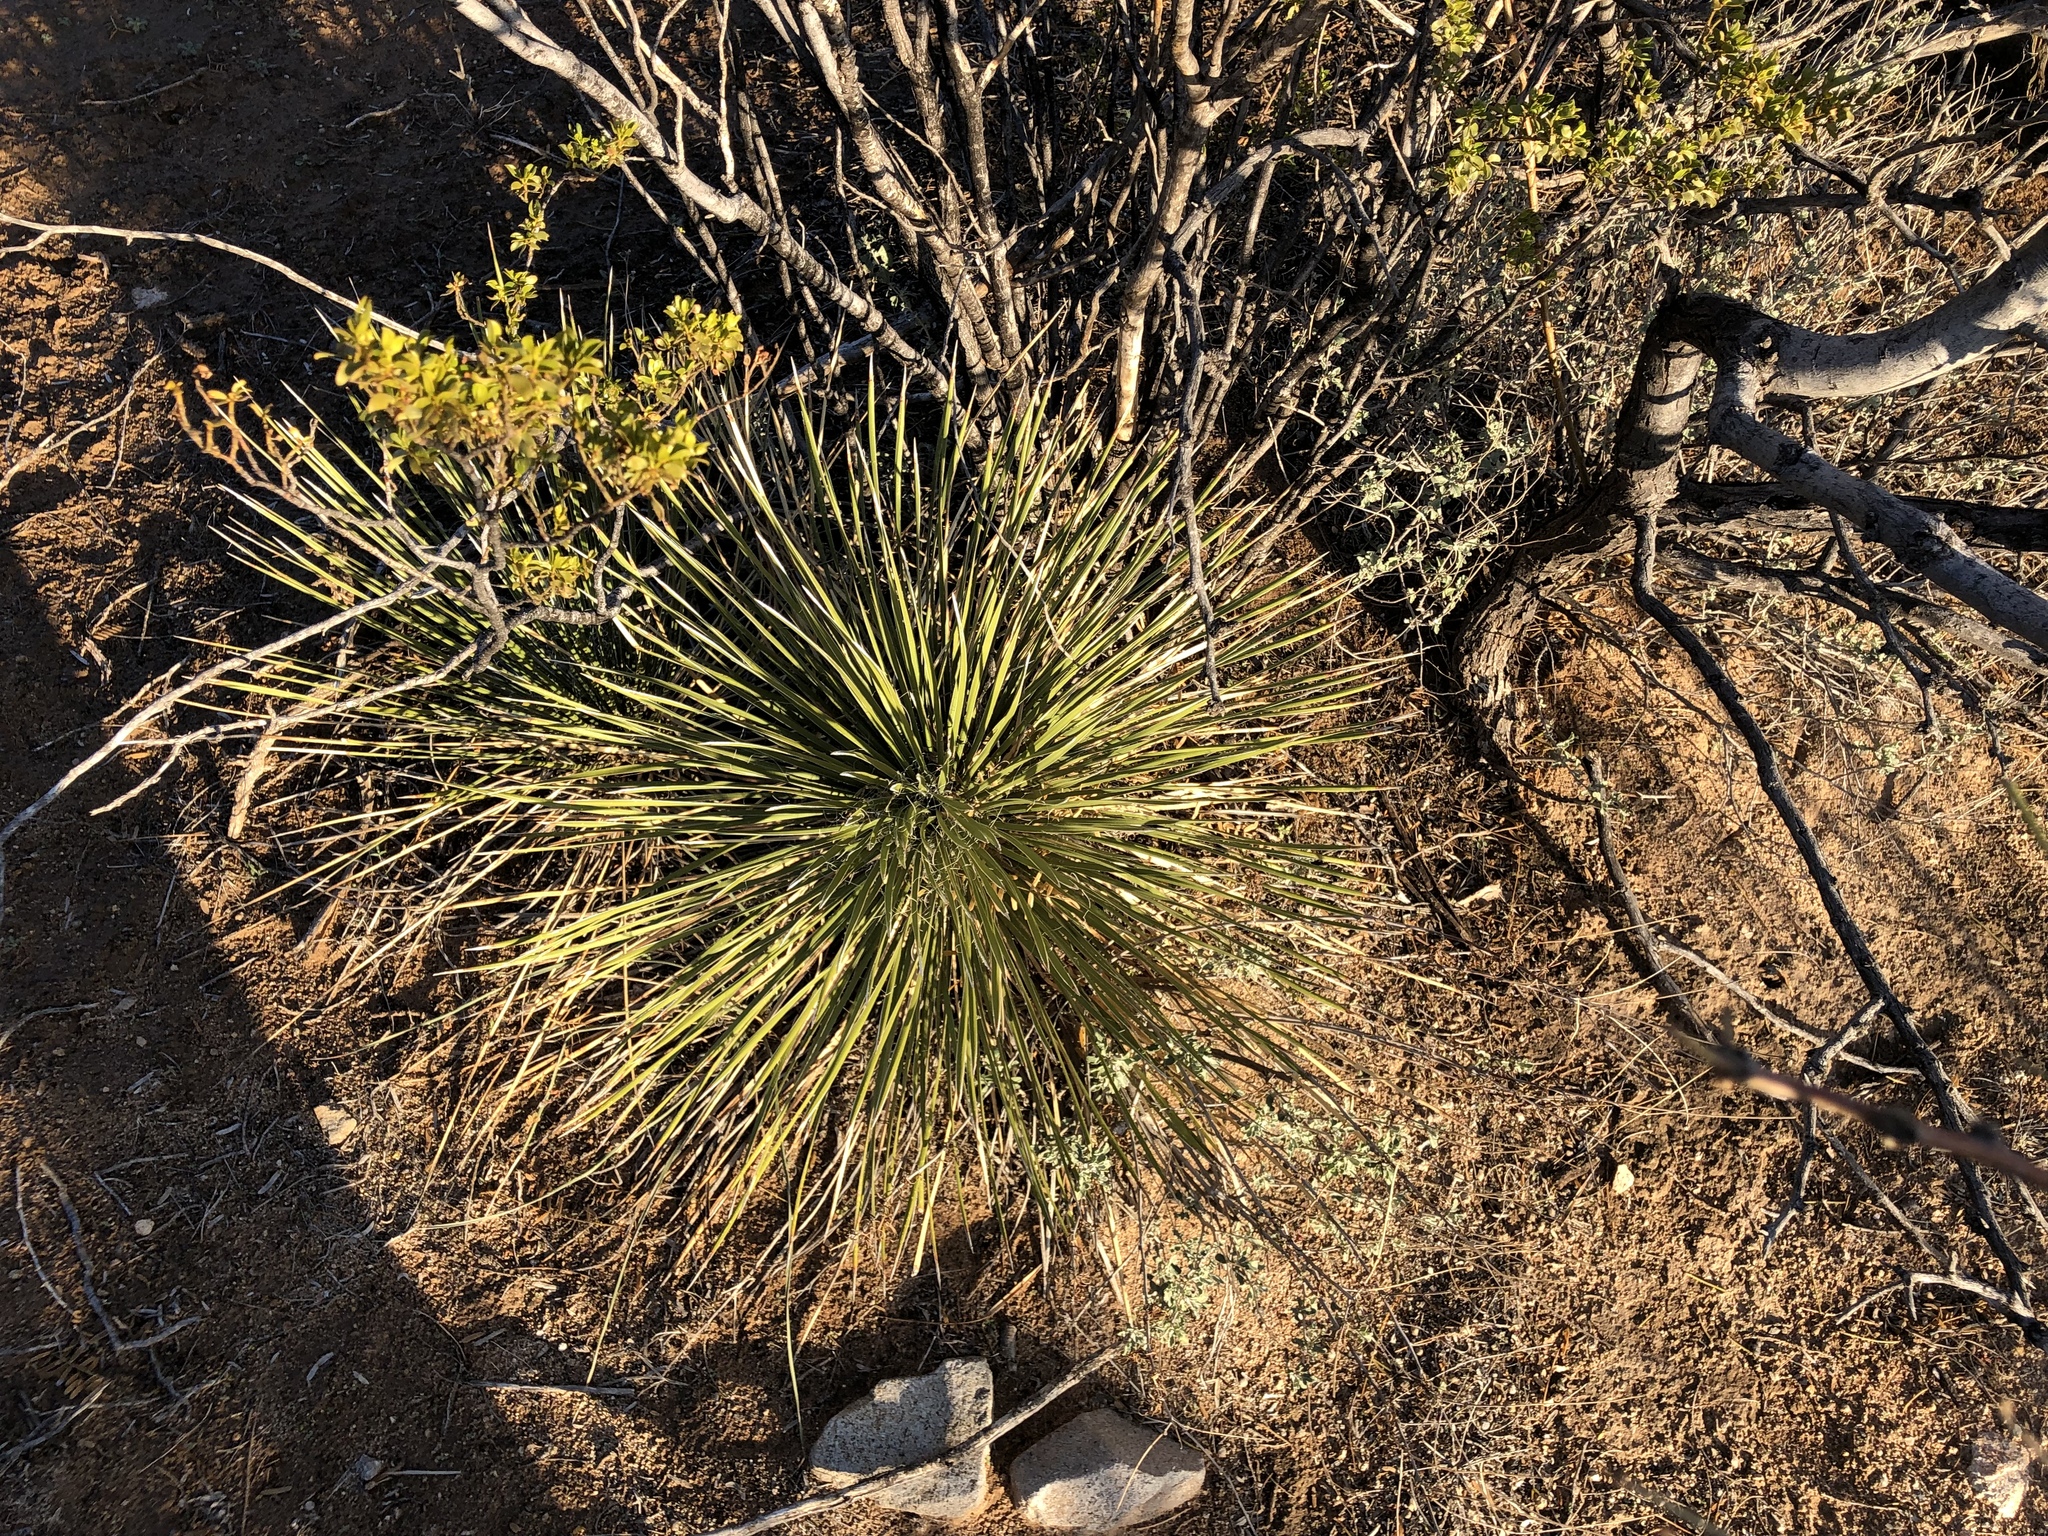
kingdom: Plantae
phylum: Tracheophyta
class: Liliopsida
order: Asparagales
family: Asparagaceae
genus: Yucca
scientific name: Yucca elata
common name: Palmella
